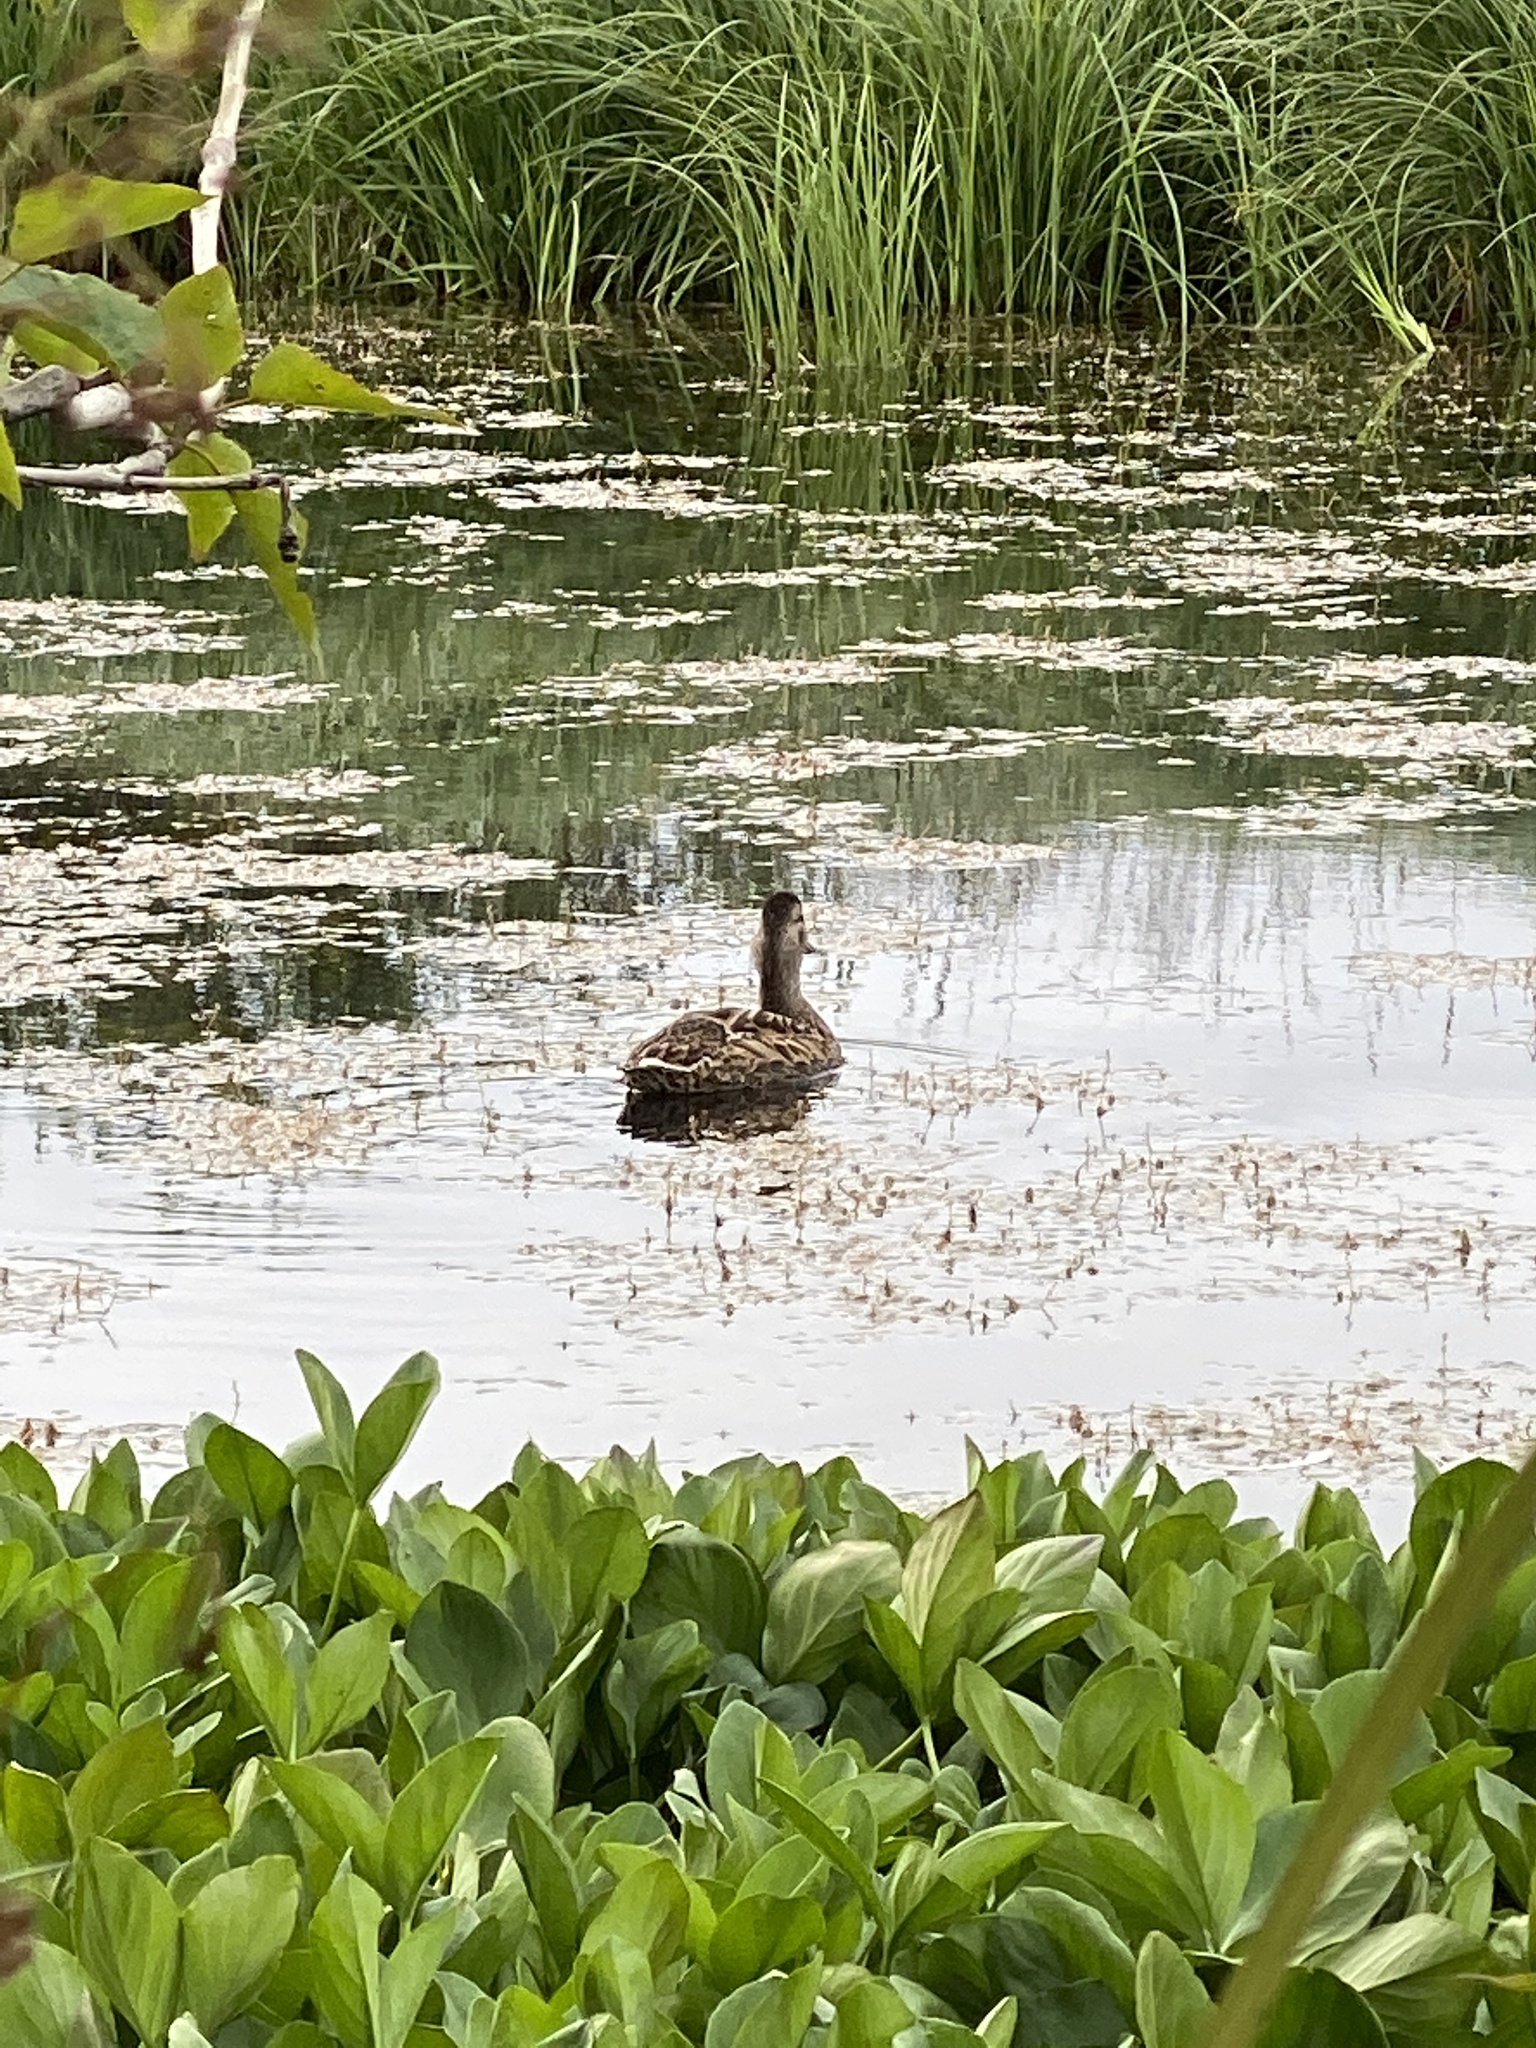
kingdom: Animalia
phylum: Chordata
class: Aves
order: Anseriformes
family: Anatidae
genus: Anas
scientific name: Anas platyrhynchos
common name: Mallard
